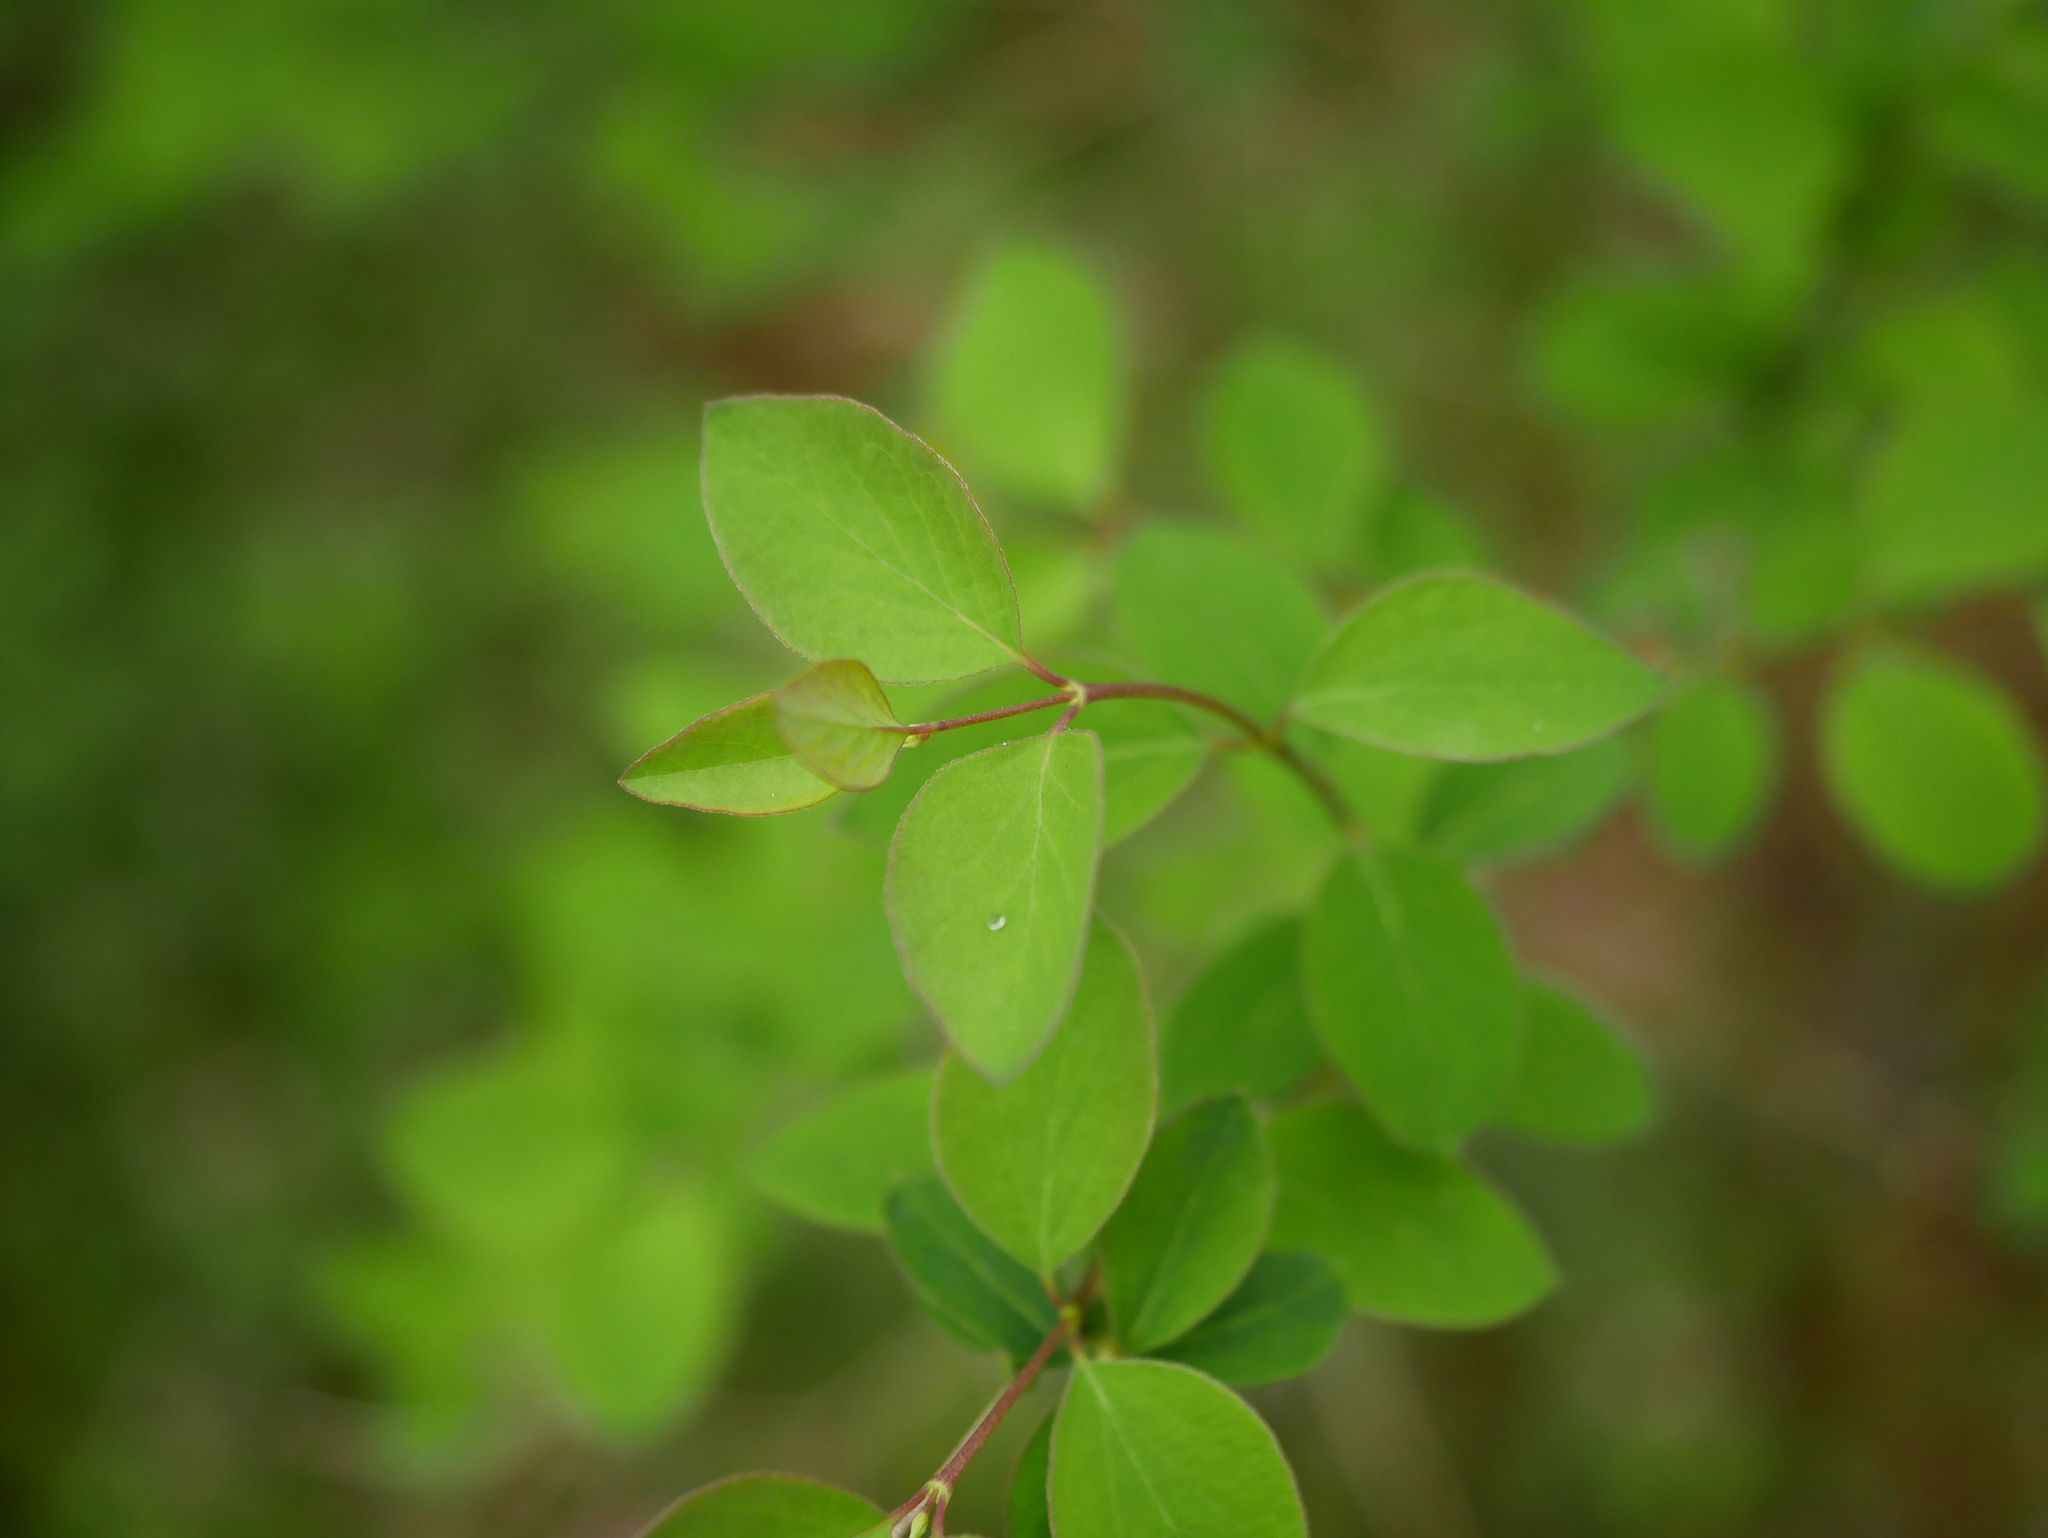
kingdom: Plantae
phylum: Tracheophyta
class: Magnoliopsida
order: Dipsacales
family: Caprifoliaceae
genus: Symphoricarpos
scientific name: Symphoricarpos albus
